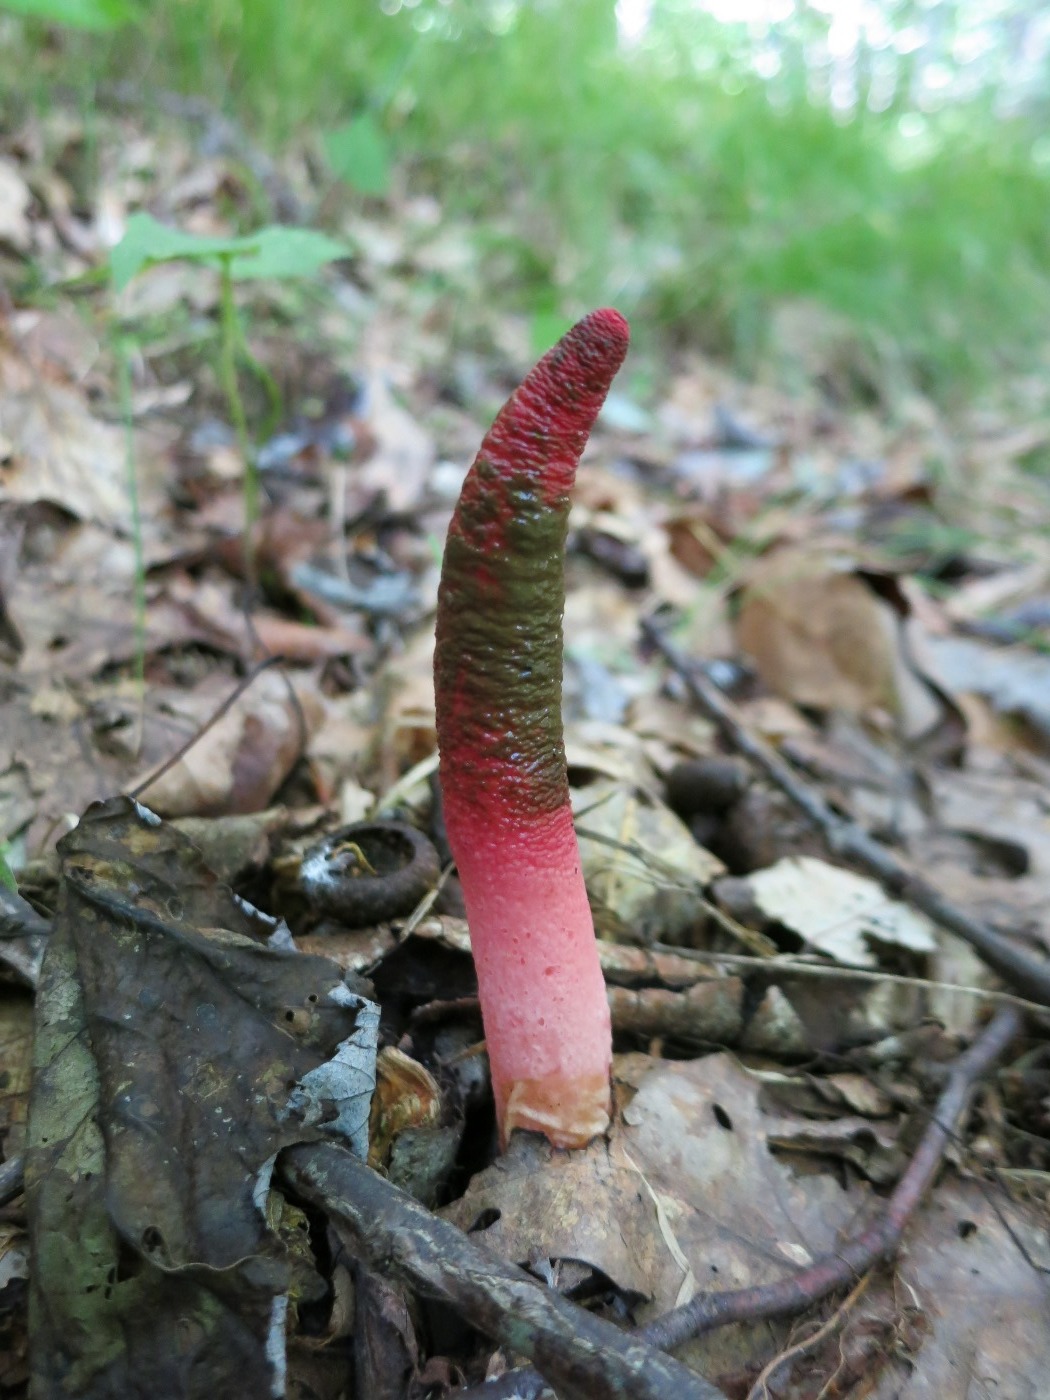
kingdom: Fungi
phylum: Basidiomycota
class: Agaricomycetes
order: Phallales
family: Phallaceae
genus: Mutinus
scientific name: Mutinus elegans
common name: Devil's dipstick
